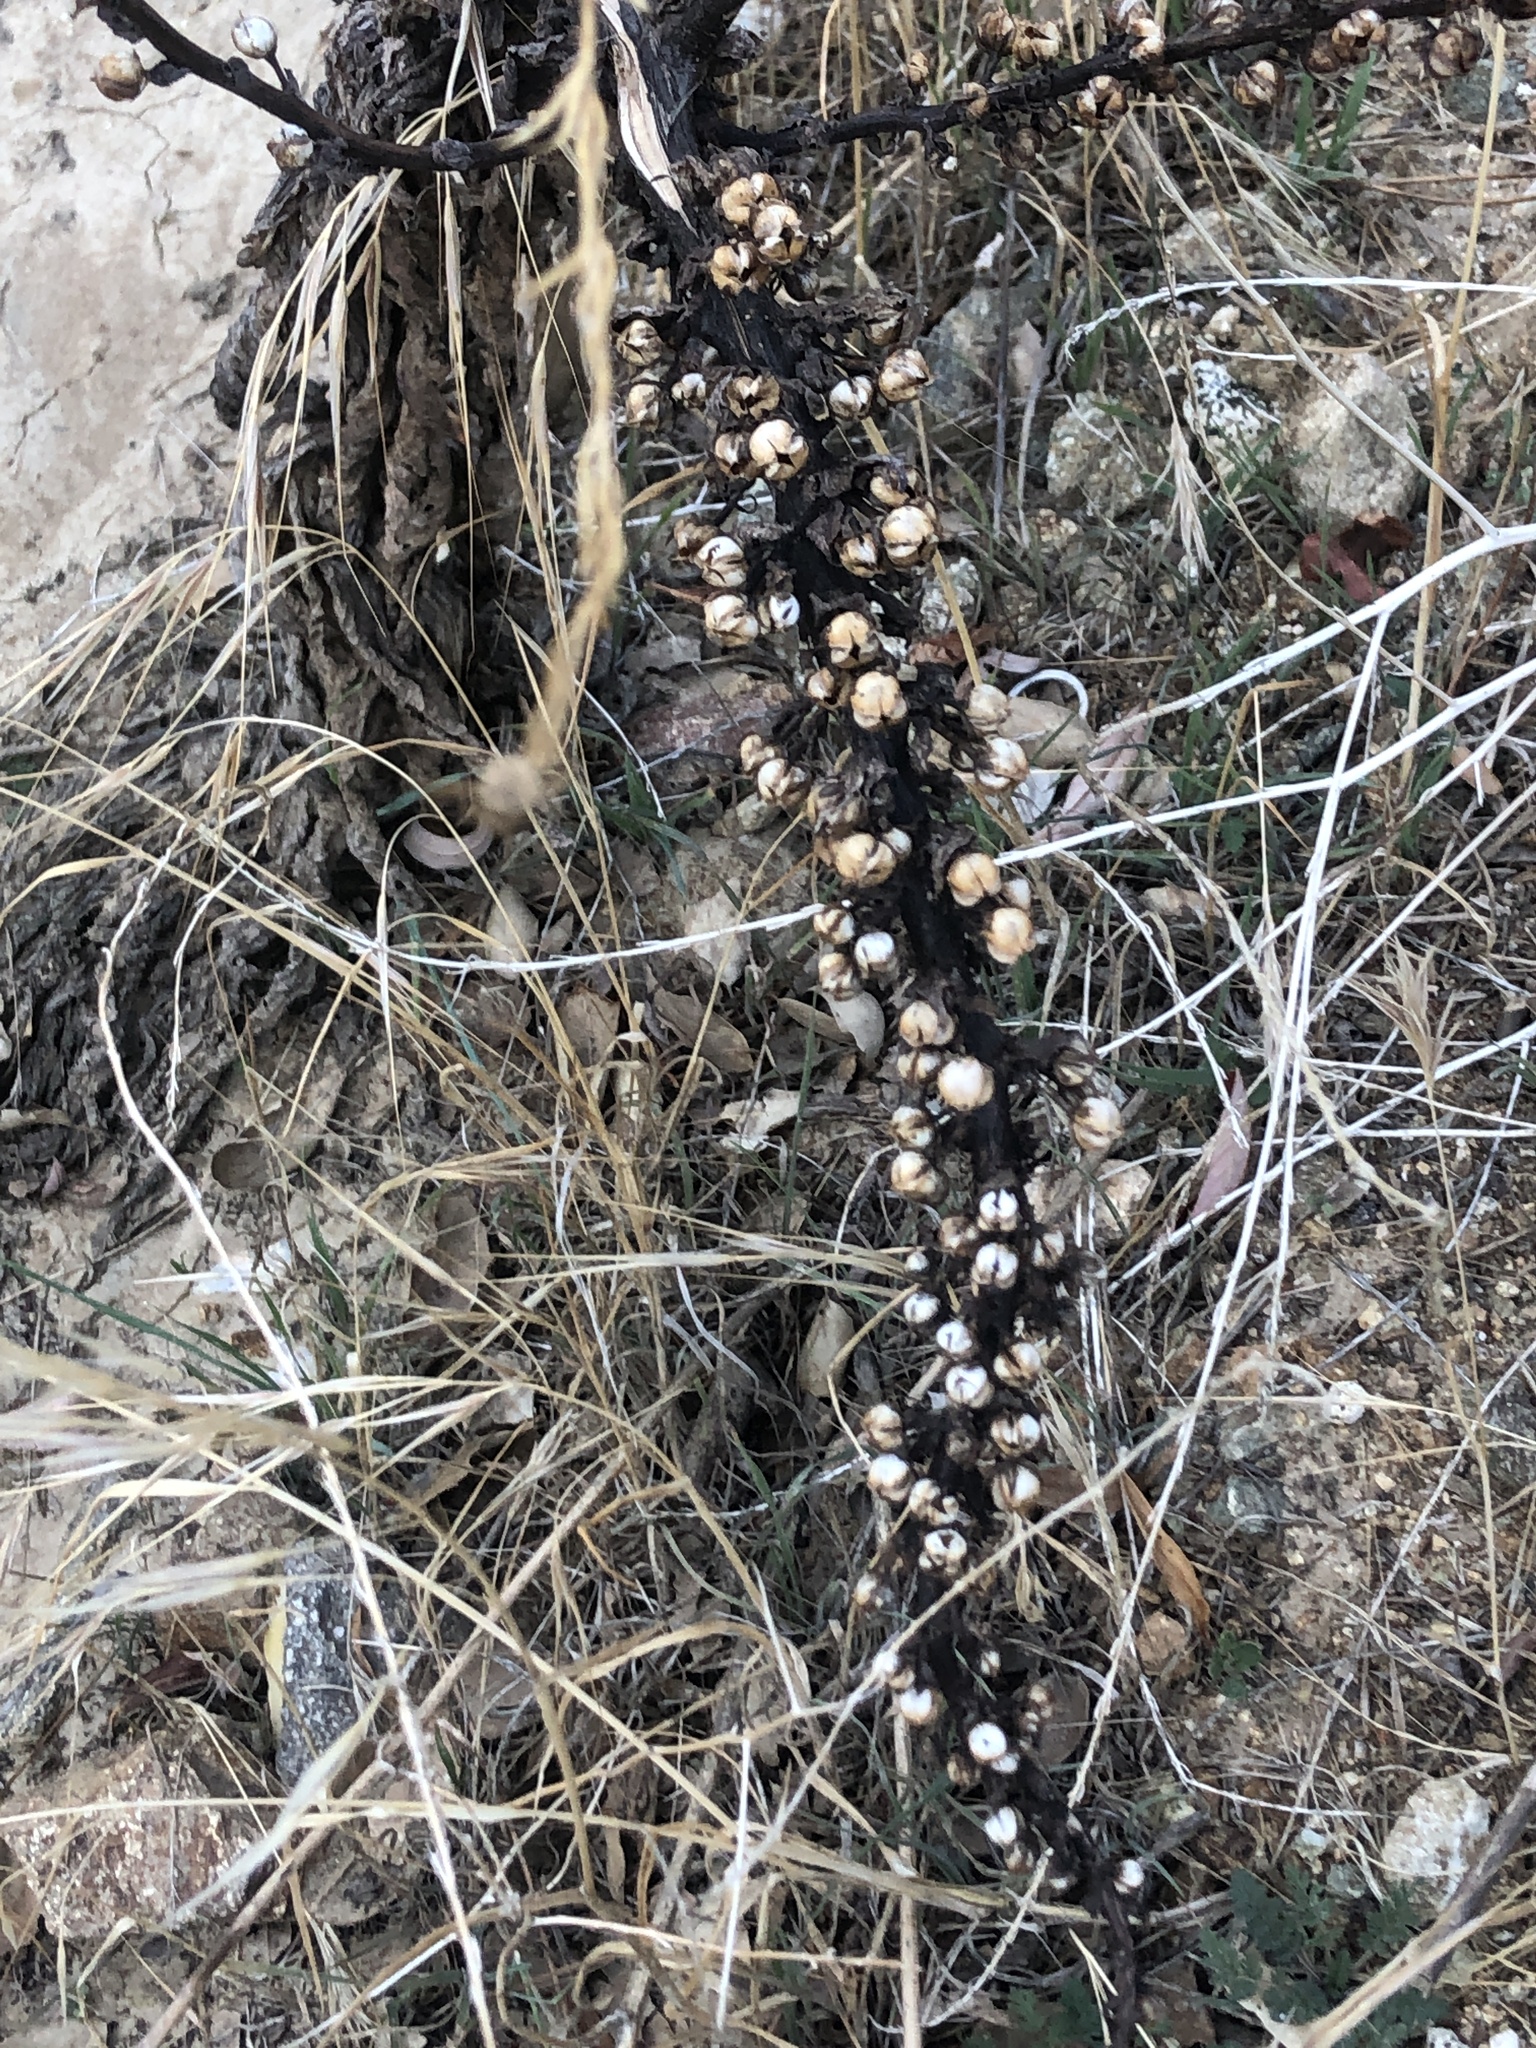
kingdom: Plantae
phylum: Tracheophyta
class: Magnoliopsida
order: Lamiales
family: Scrophulariaceae
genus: Verbascum
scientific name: Verbascum virgatum
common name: Twiggy mullein
